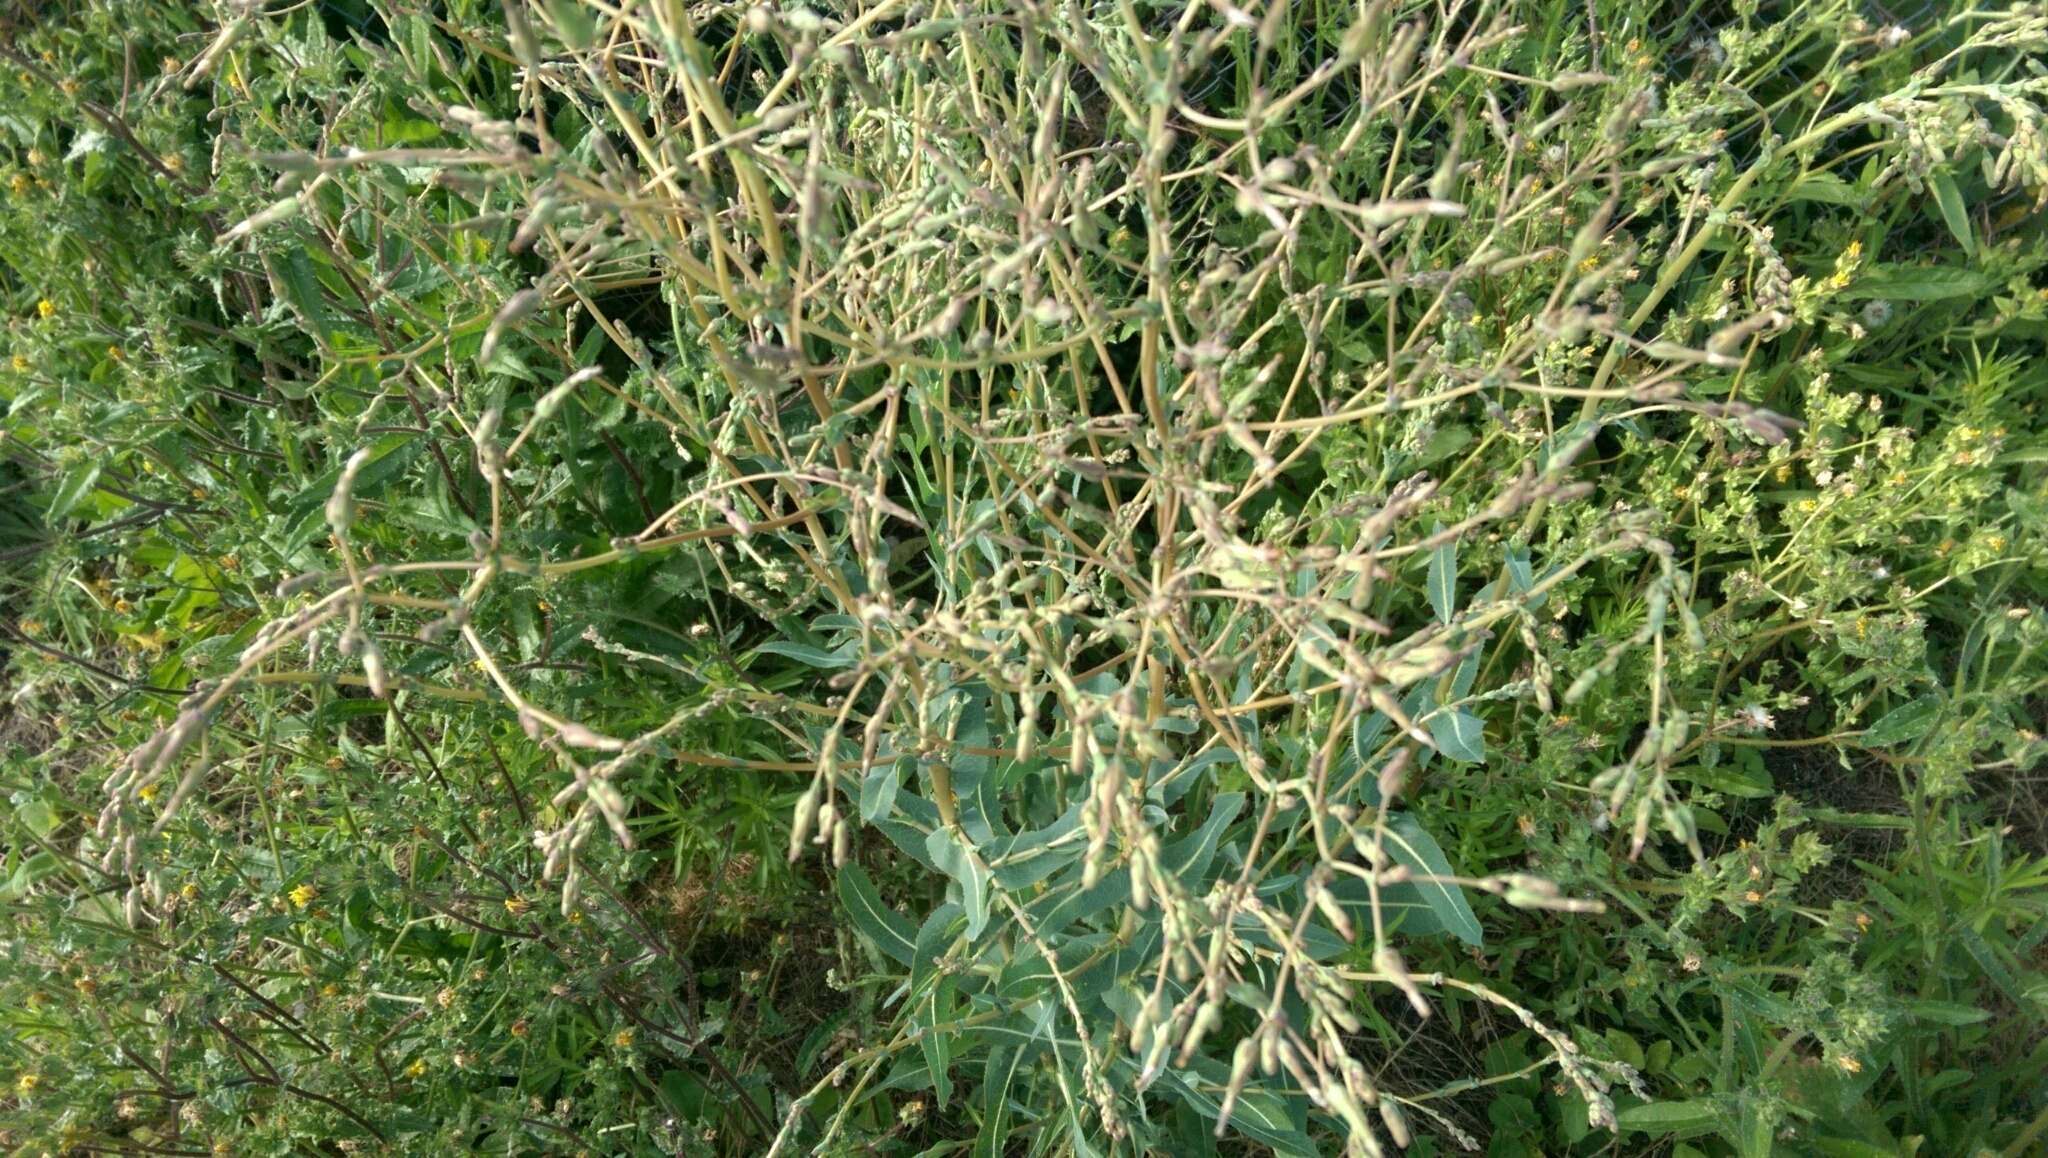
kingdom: Plantae
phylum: Tracheophyta
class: Magnoliopsida
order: Asterales
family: Asteraceae
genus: Lactuca
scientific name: Lactuca serriola
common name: Prickly lettuce
